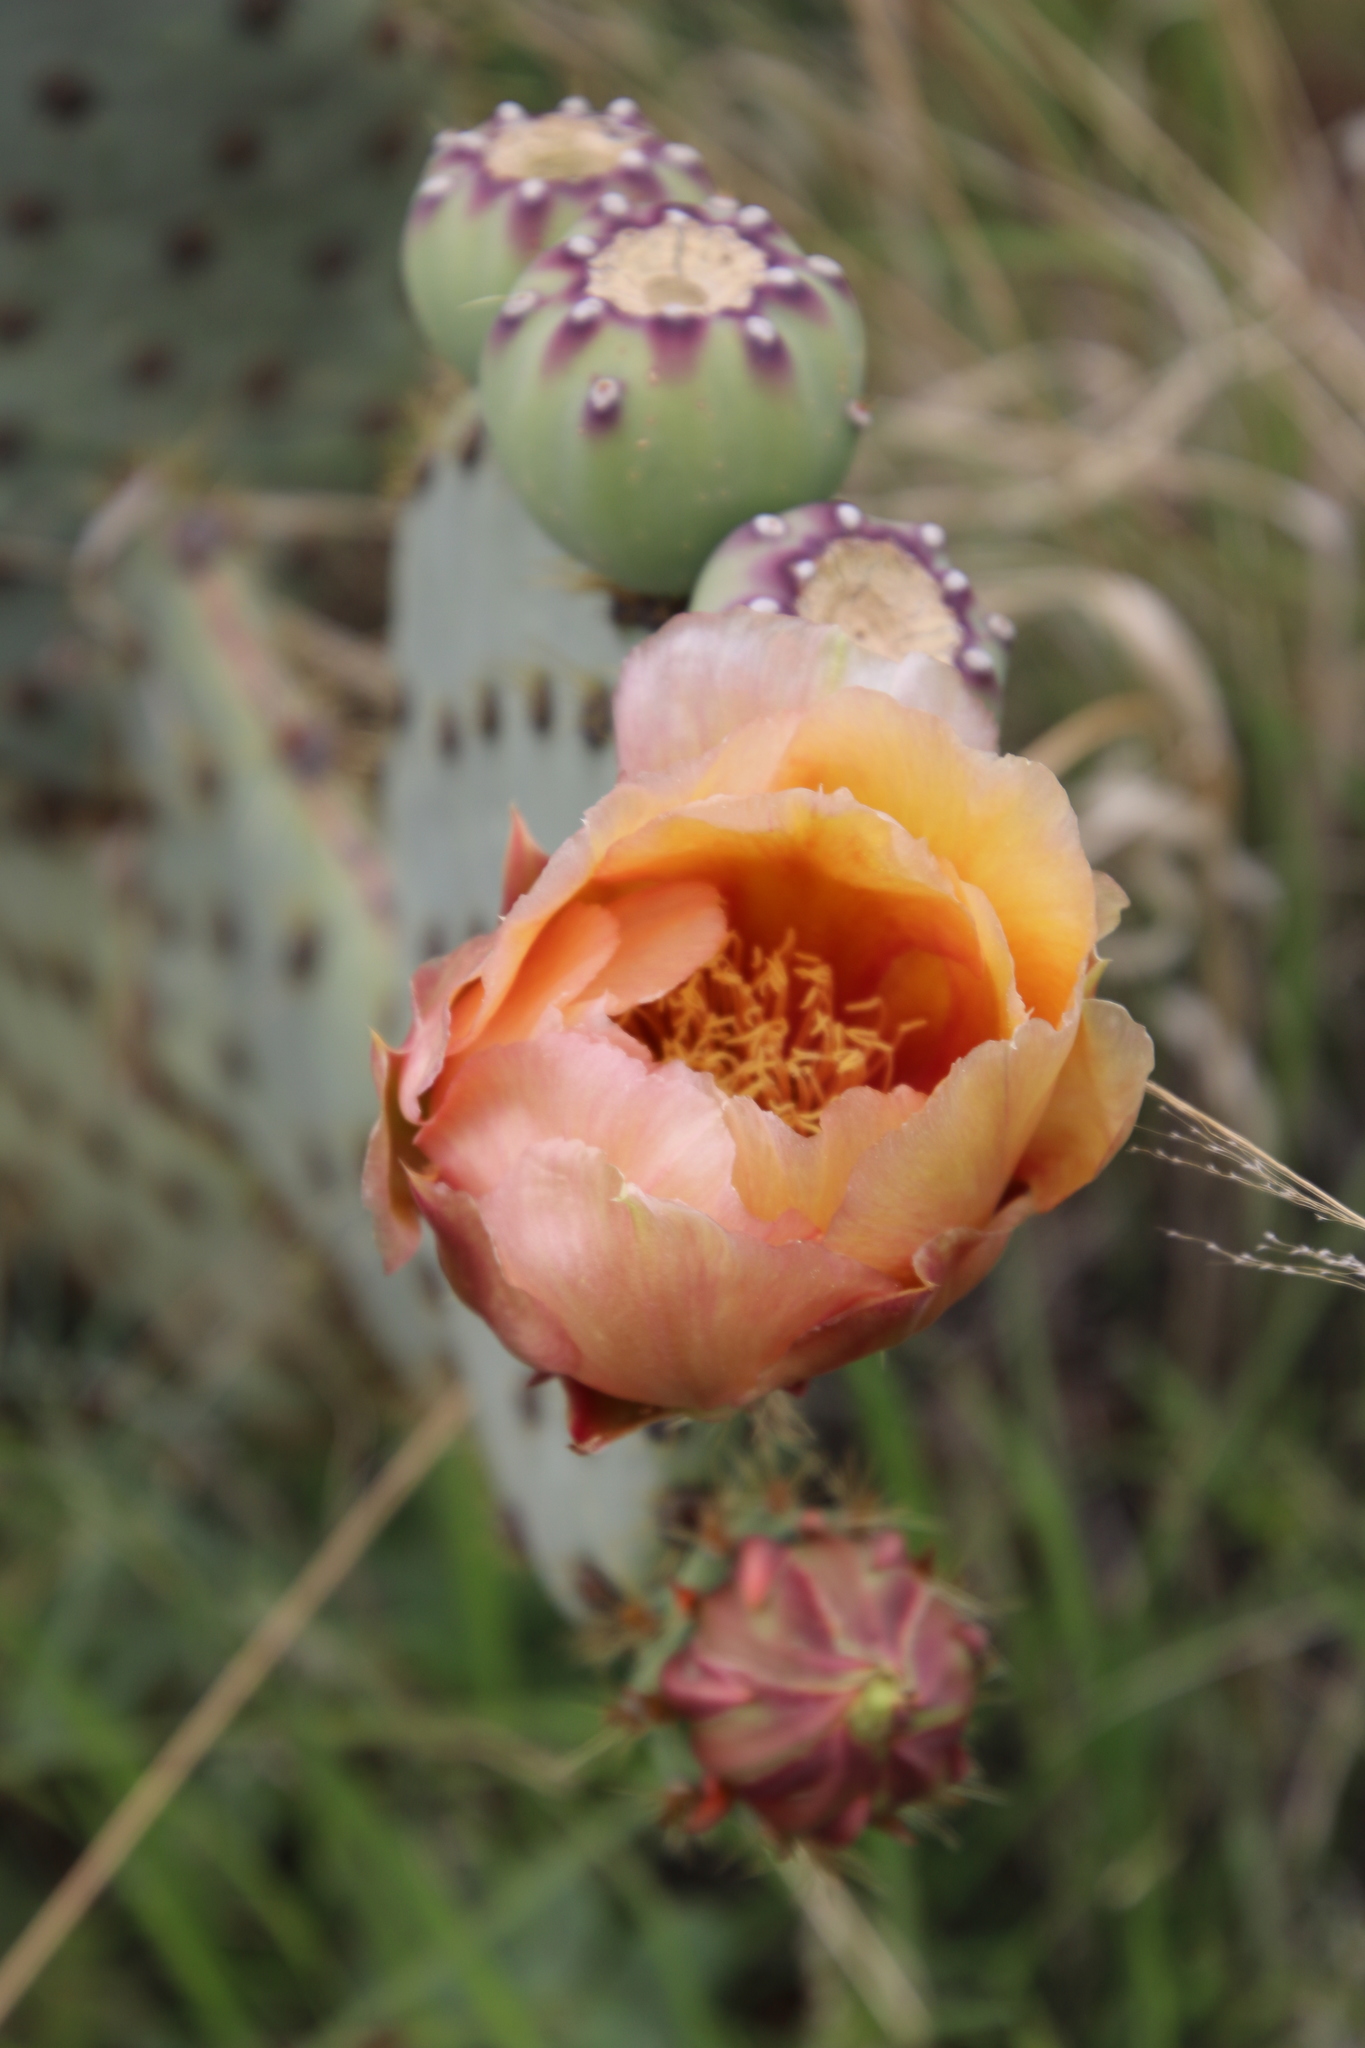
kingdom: Plantae
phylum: Tracheophyta
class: Magnoliopsida
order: Caryophyllales
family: Cactaceae
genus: Opuntia
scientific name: Opuntia engelmannii
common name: Cactus-apple
